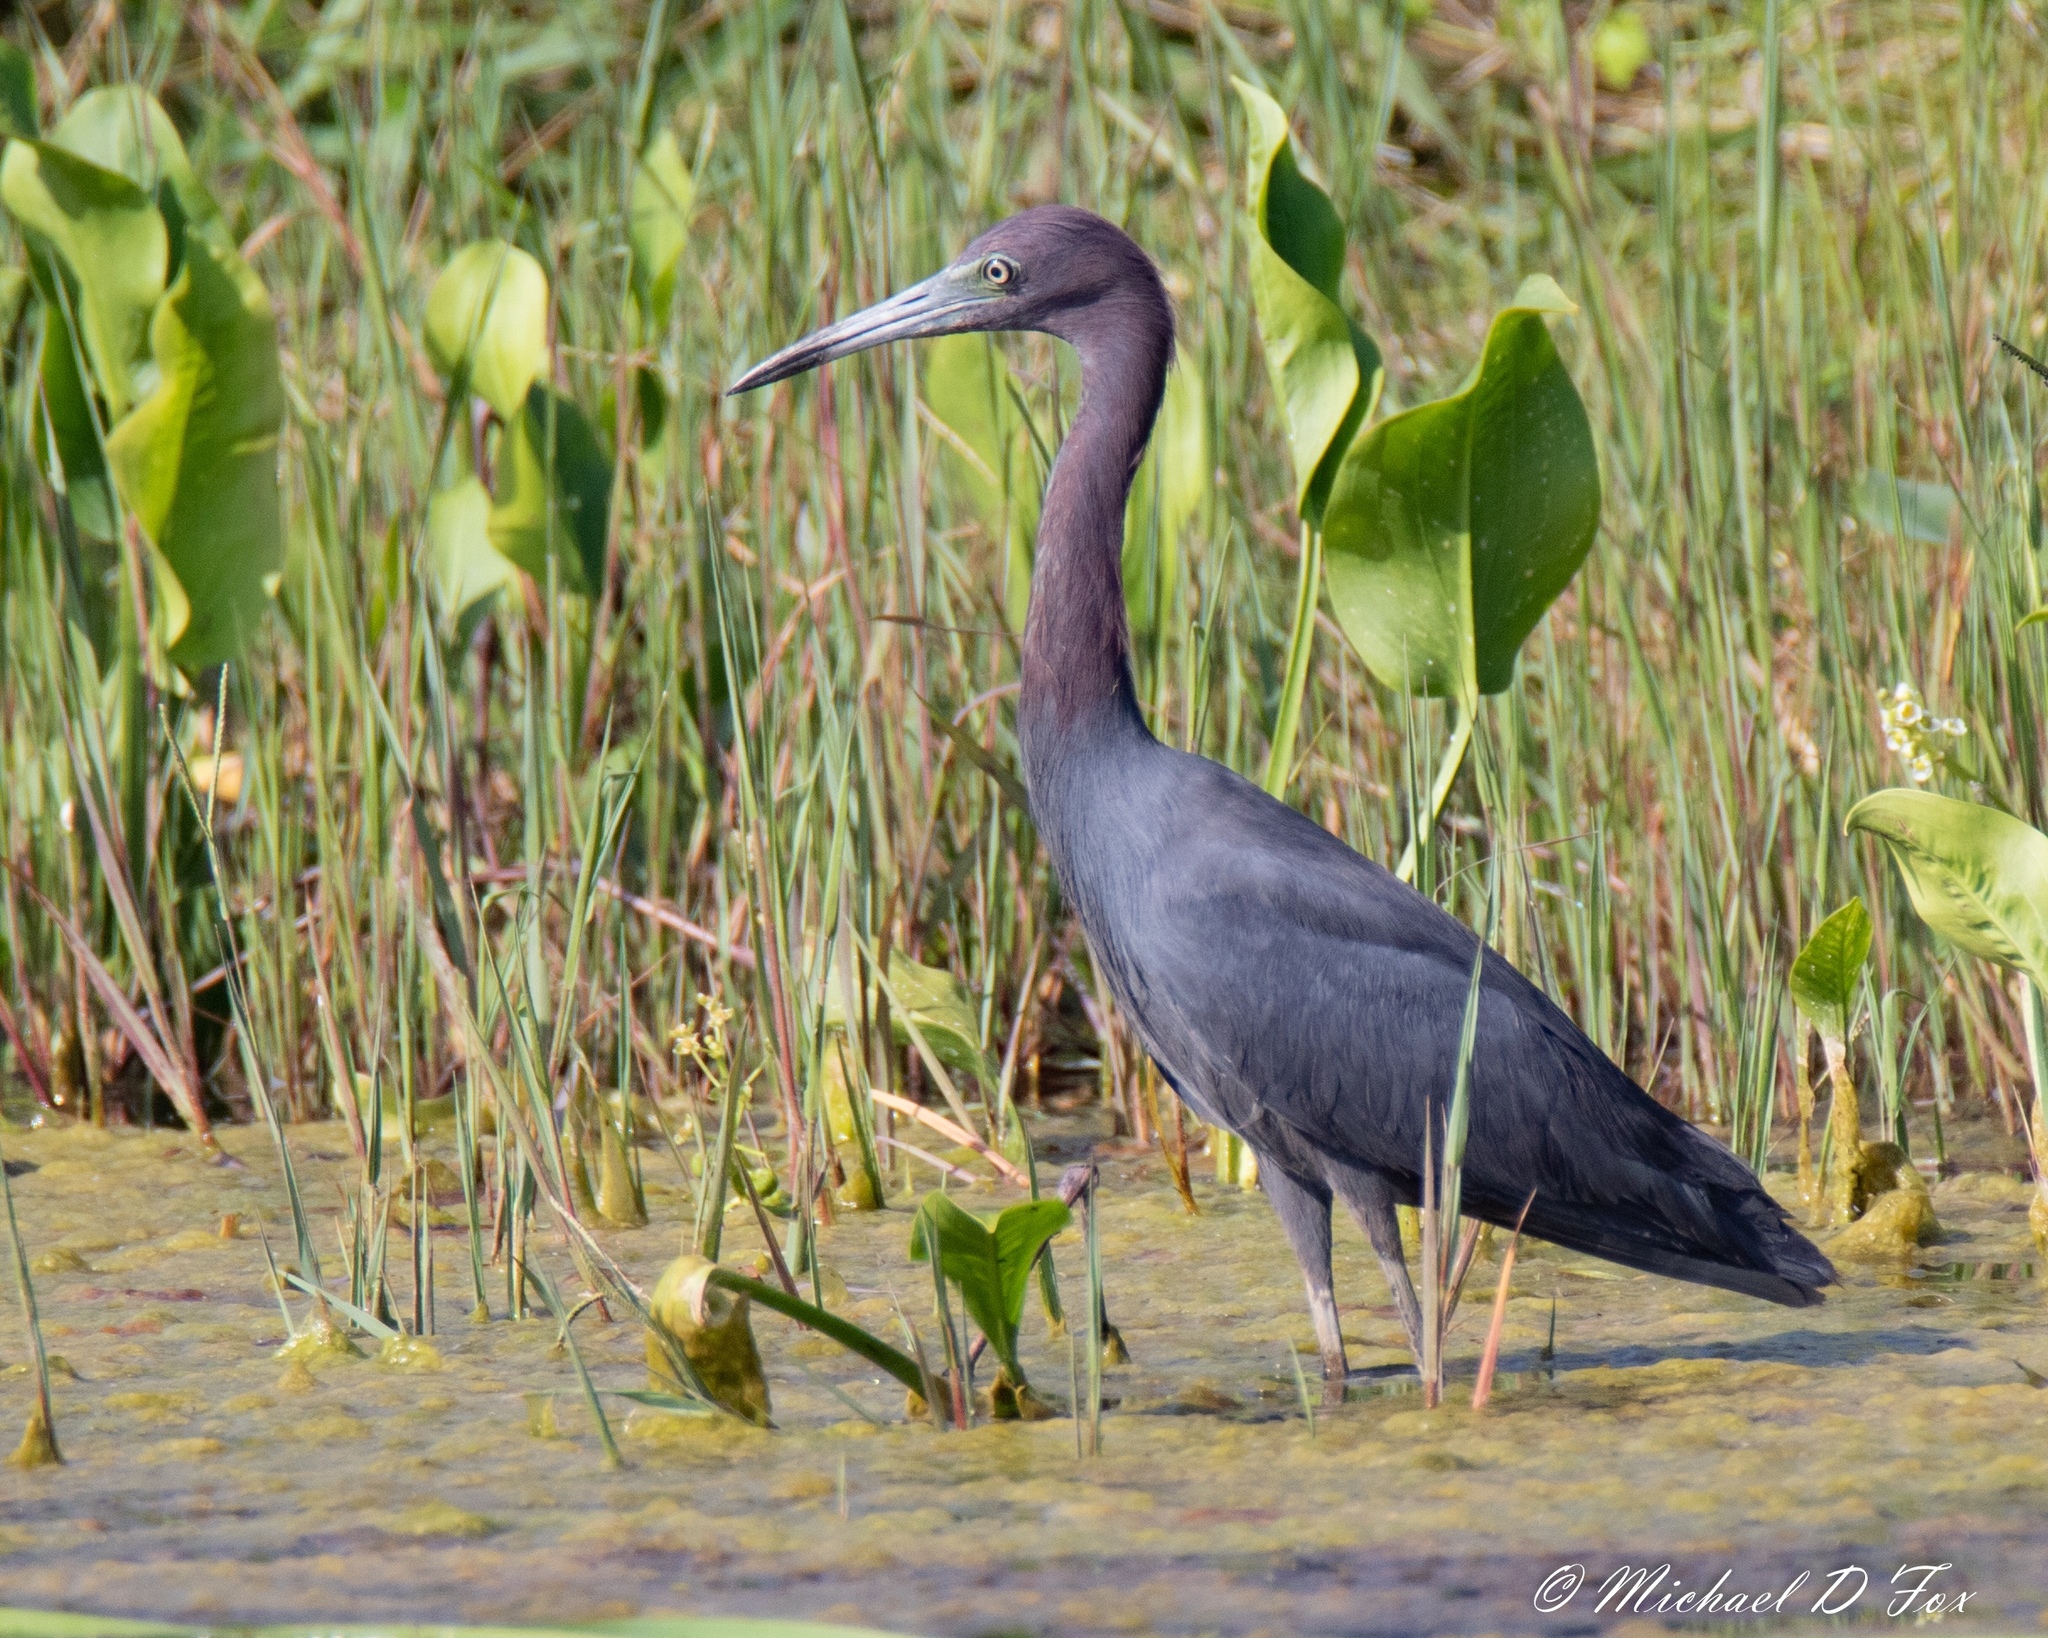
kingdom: Animalia
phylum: Chordata
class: Aves
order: Pelecaniformes
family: Ardeidae
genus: Egretta
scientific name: Egretta caerulea
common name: Little blue heron
